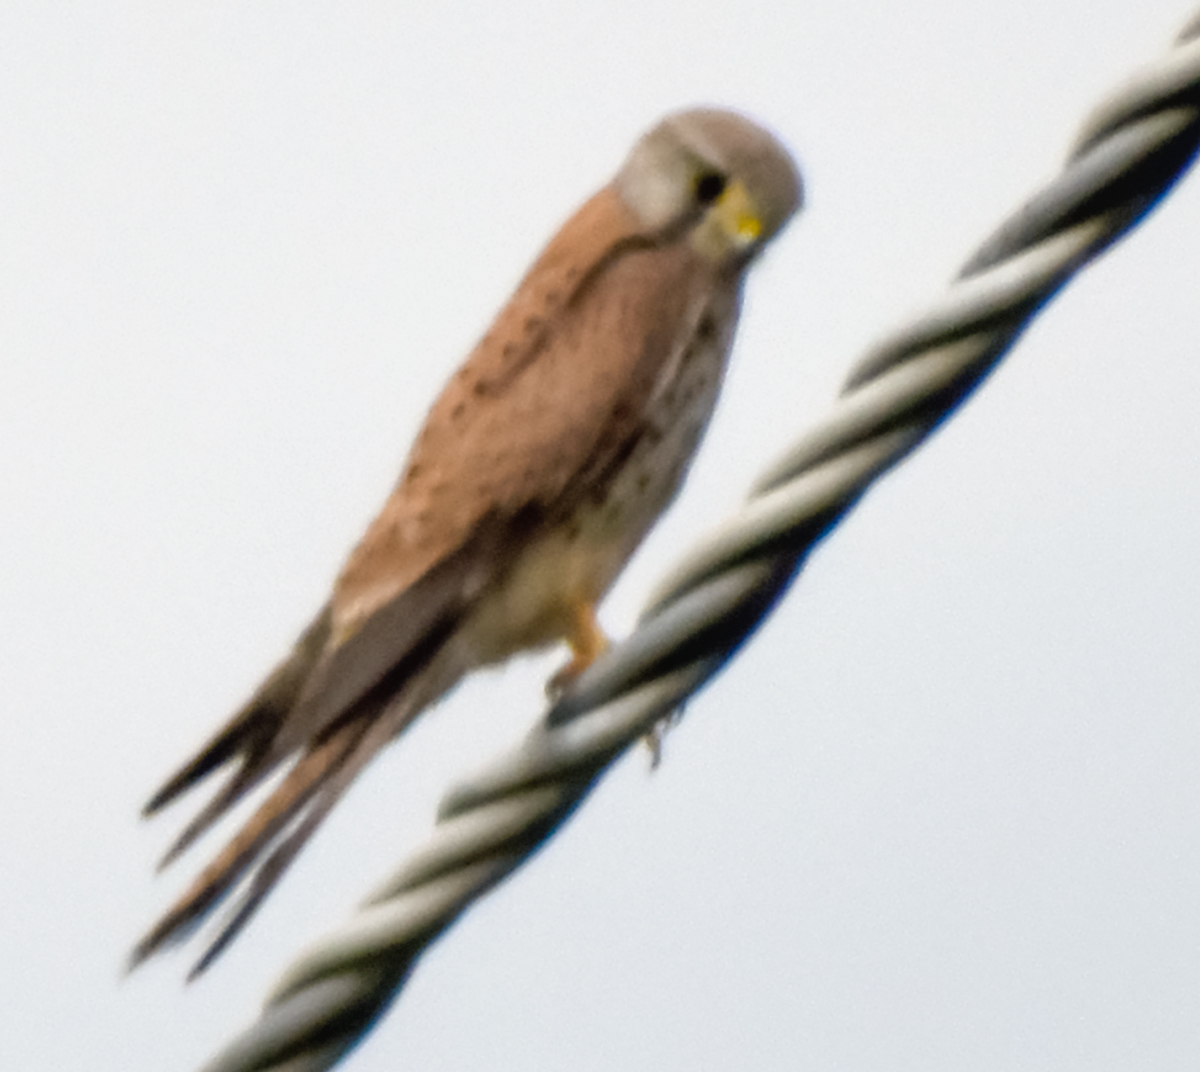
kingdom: Animalia
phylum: Chordata
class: Aves
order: Falconiformes
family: Falconidae
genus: Falco
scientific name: Falco tinnunculus
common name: Common kestrel
